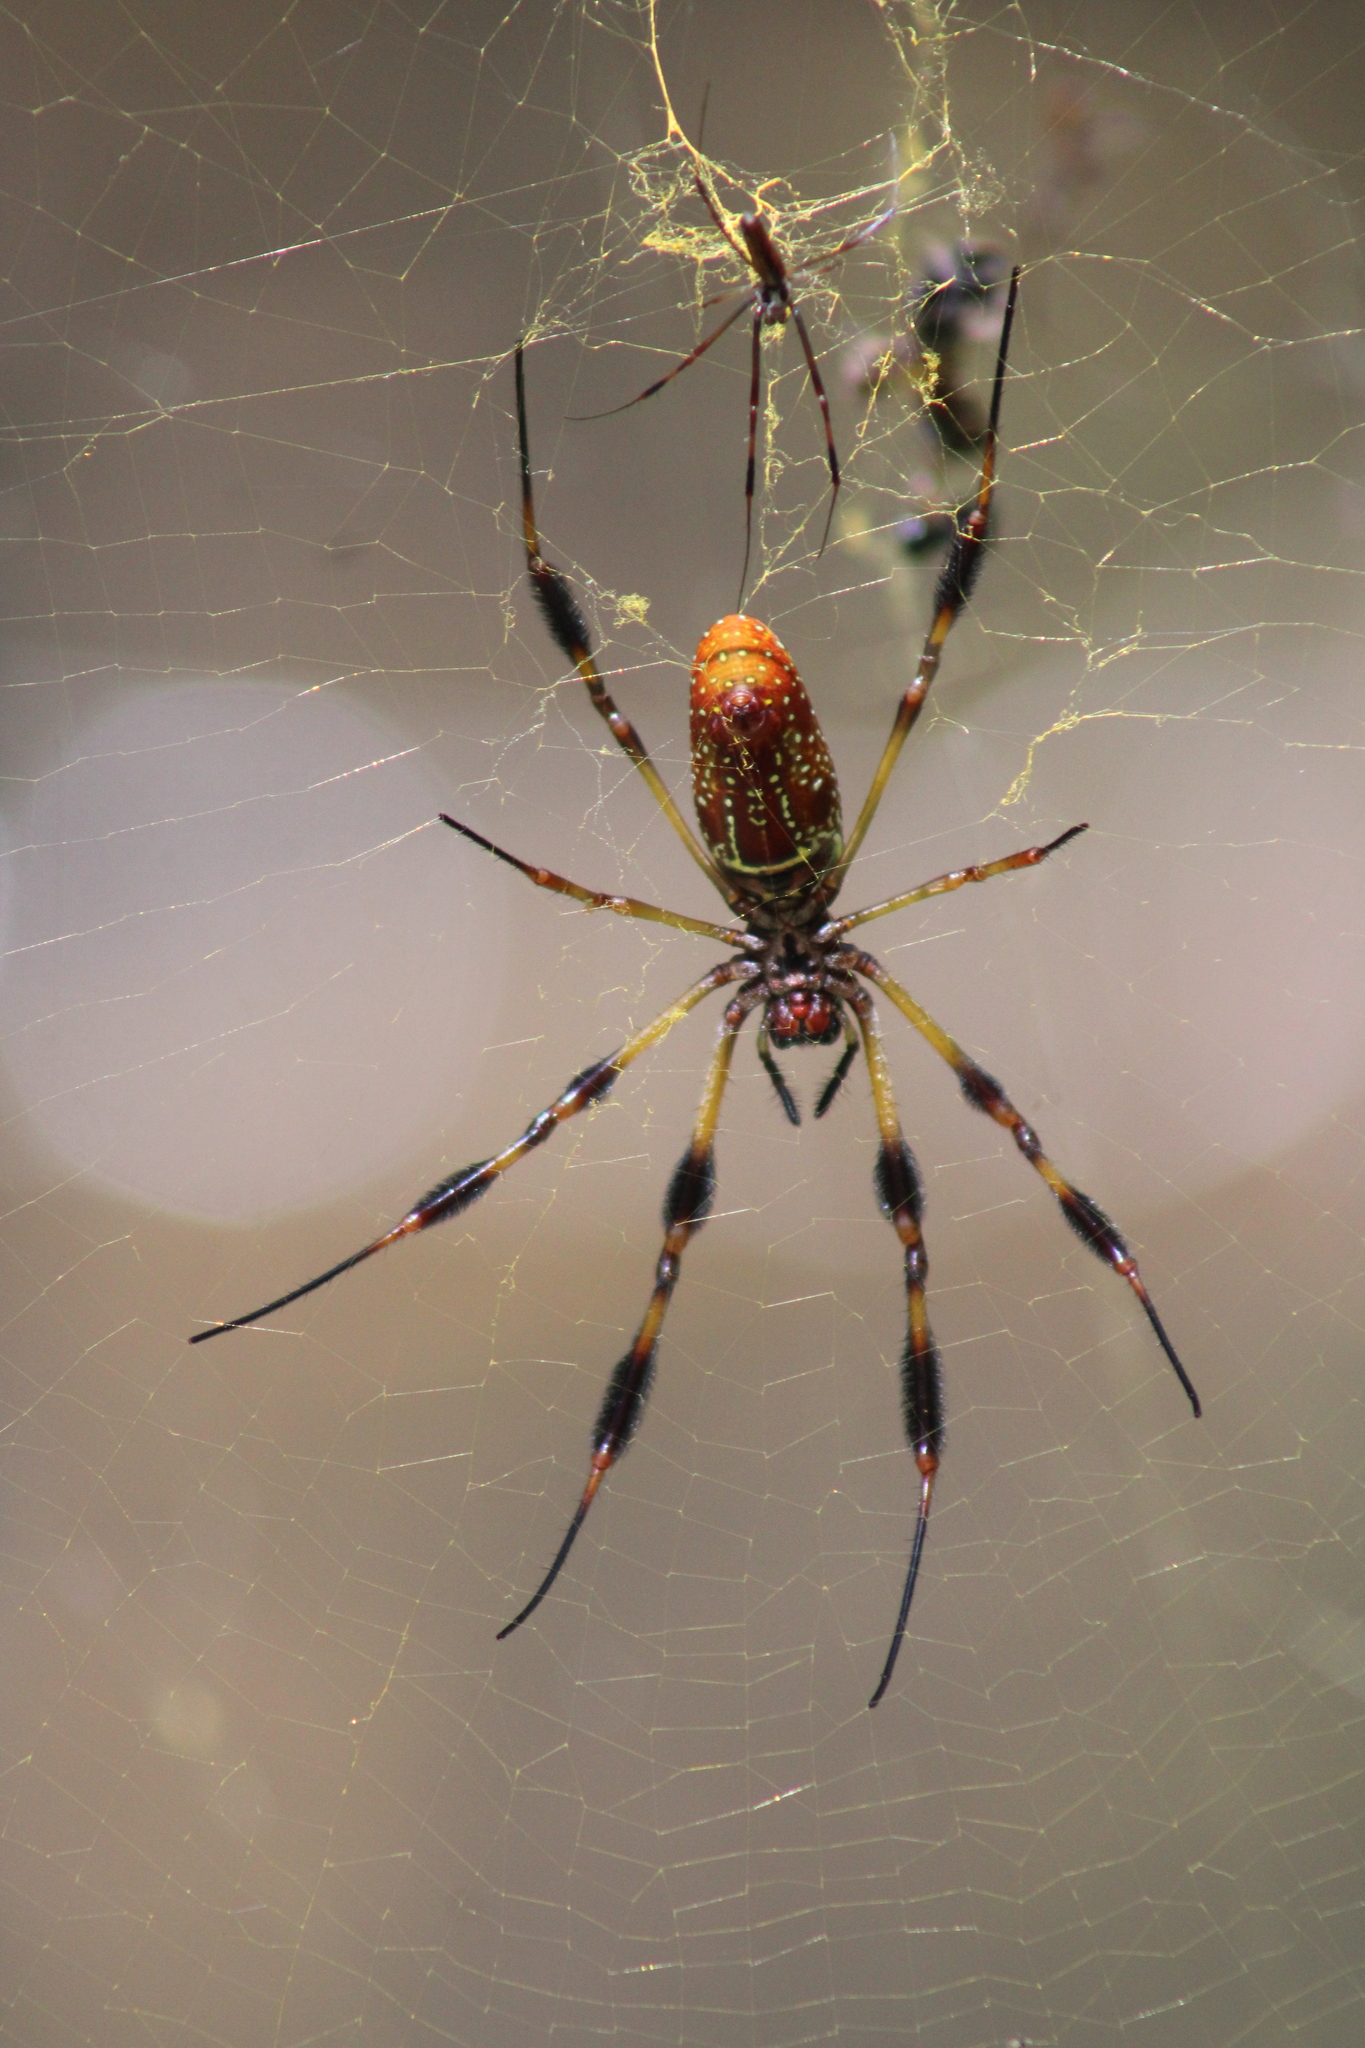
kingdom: Animalia
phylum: Arthropoda
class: Arachnida
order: Araneae
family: Araneidae
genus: Trichonephila
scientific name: Trichonephila clavipes
